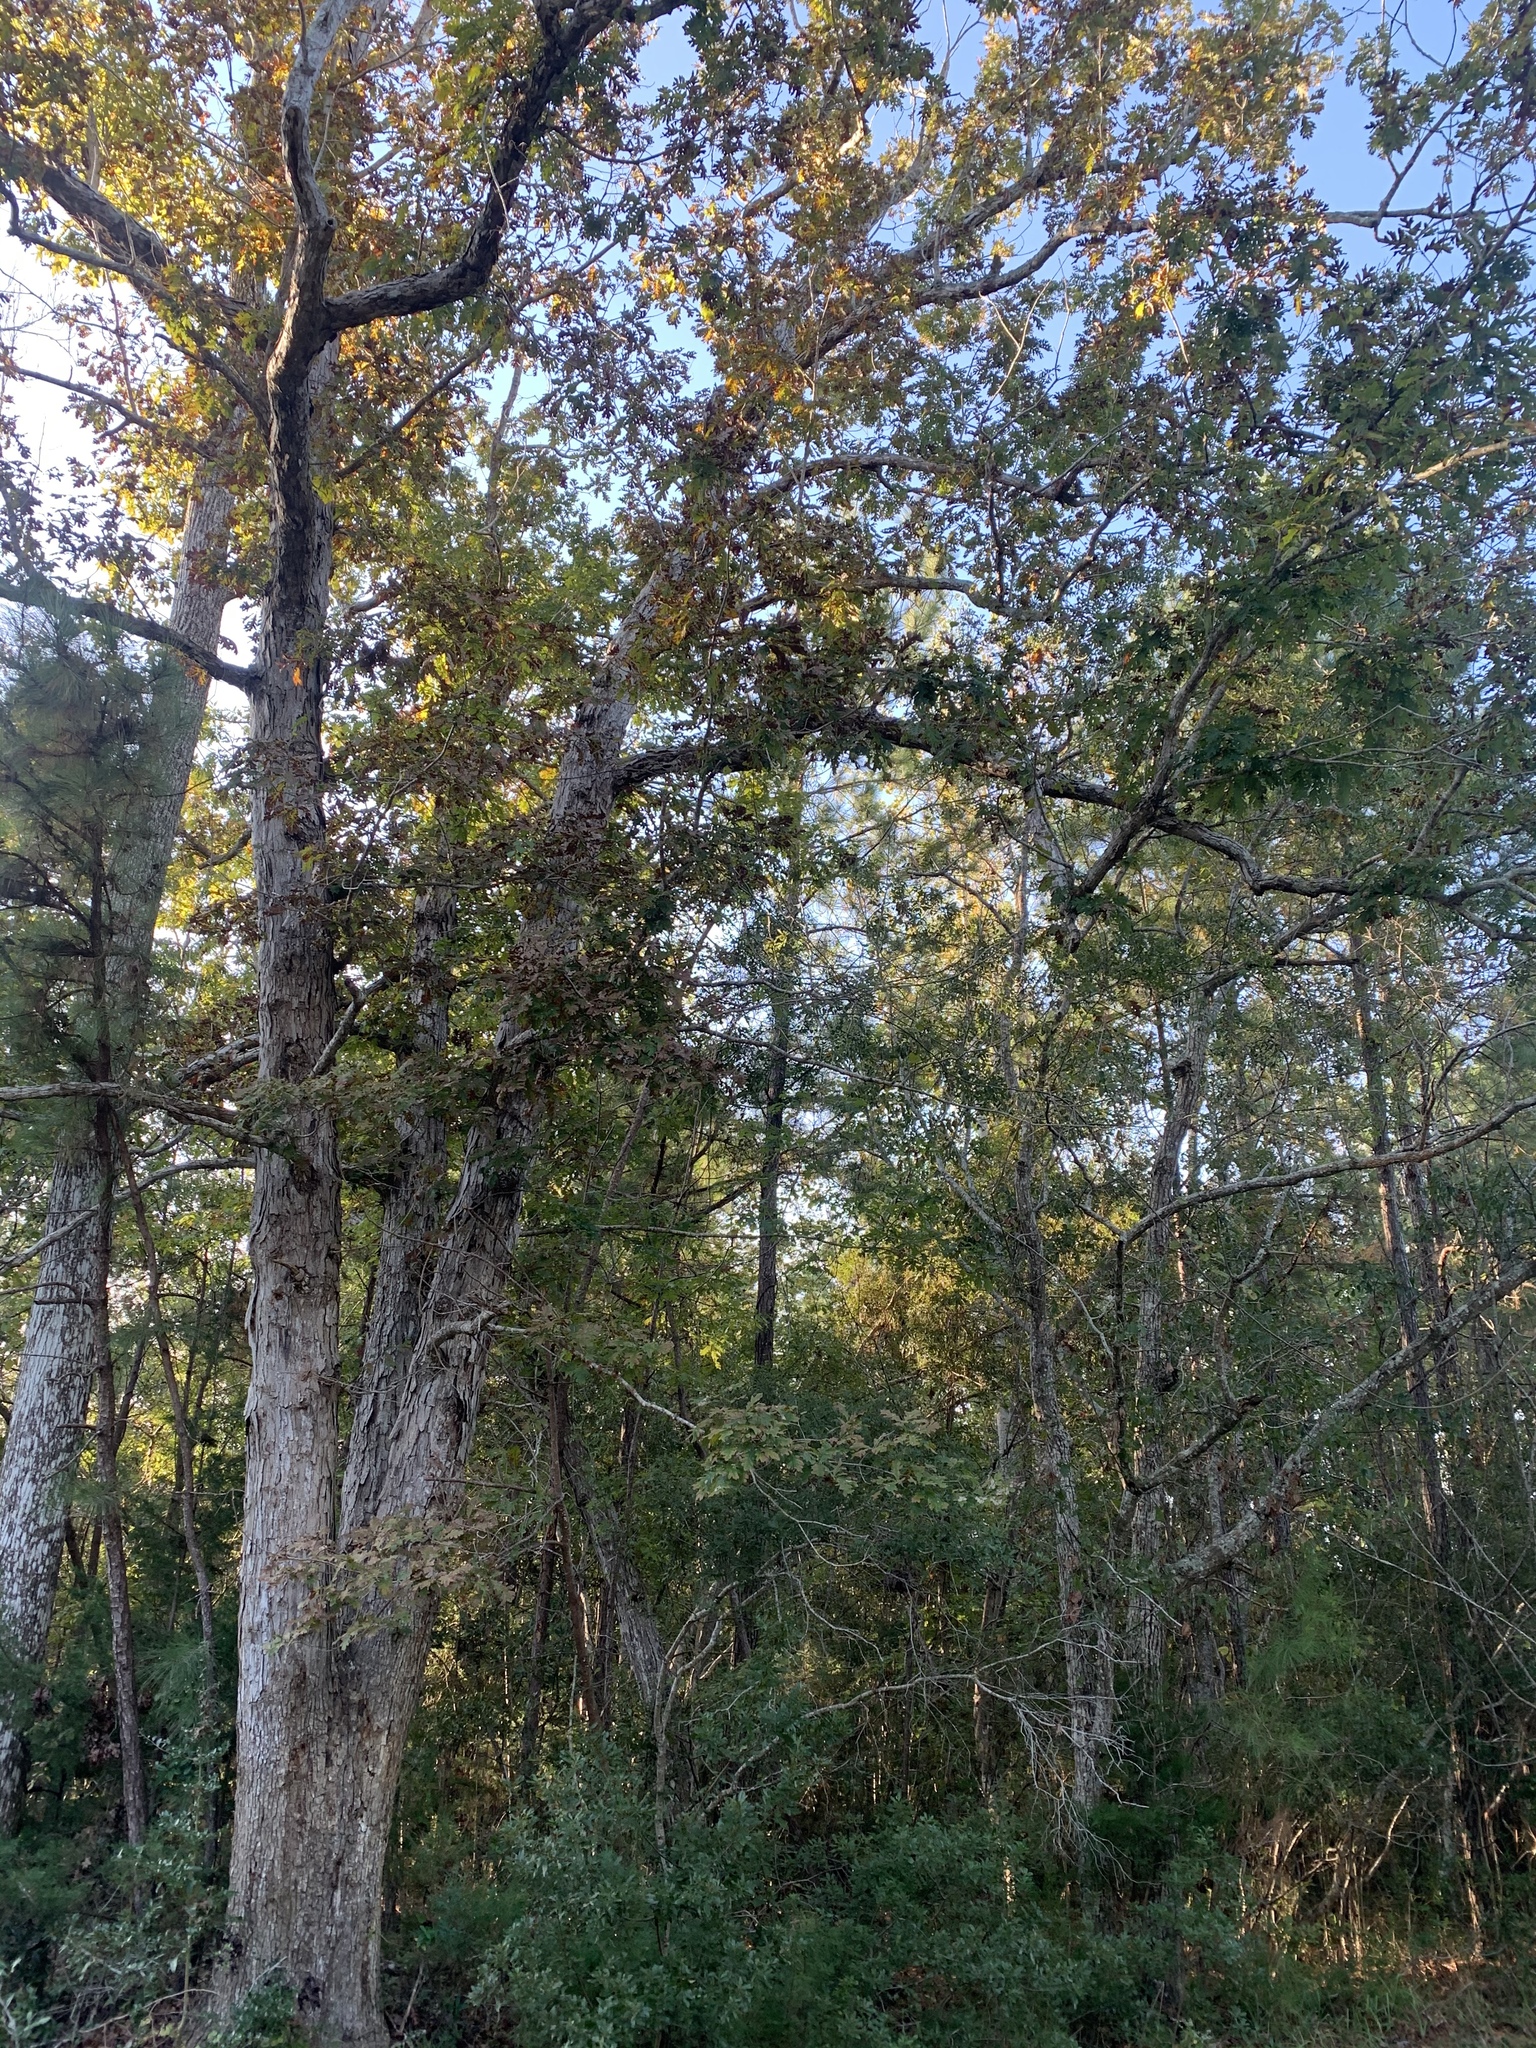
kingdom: Plantae
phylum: Tracheophyta
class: Magnoliopsida
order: Fagales
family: Fagaceae
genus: Quercus
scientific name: Quercus alba
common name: White oak
